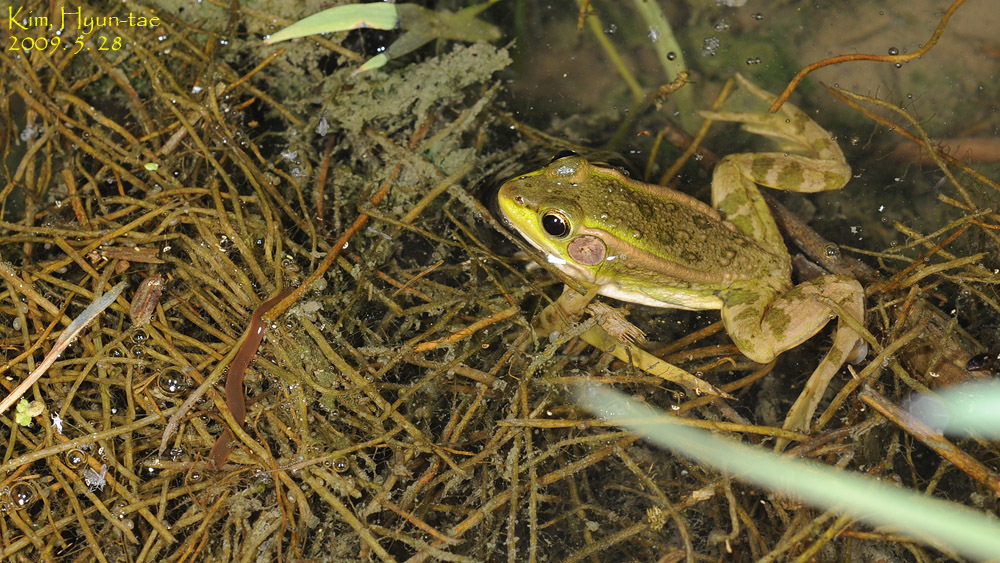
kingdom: Animalia
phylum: Chordata
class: Amphibia
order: Anura
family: Ranidae
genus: Pelophylax
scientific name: Pelophylax chosenicus
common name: Gold-spotted pond frog
